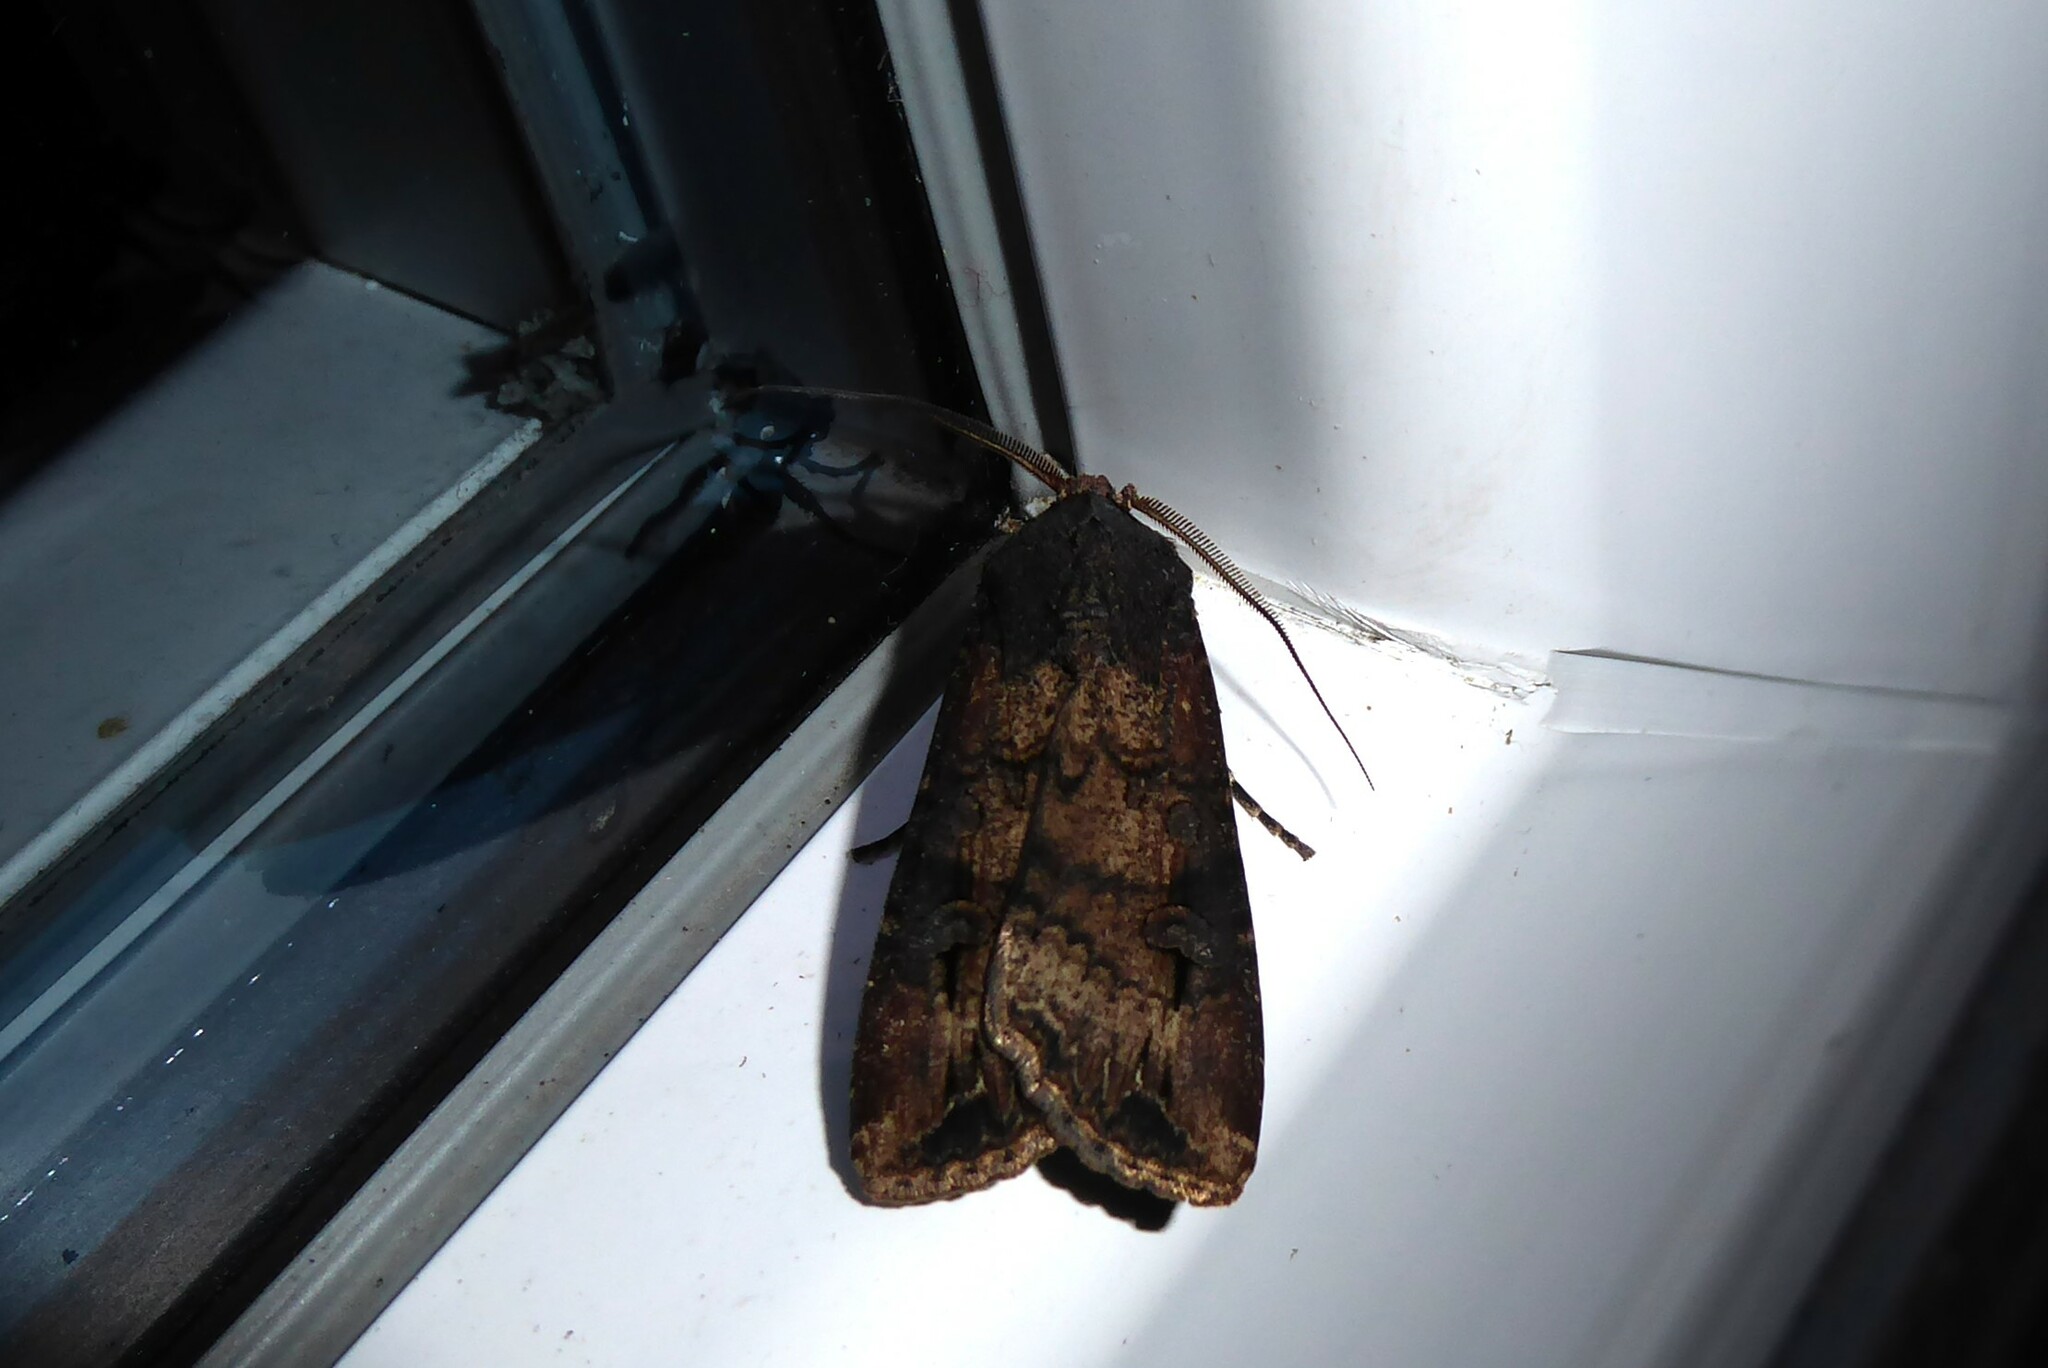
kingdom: Animalia
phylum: Arthropoda
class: Insecta
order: Lepidoptera
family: Noctuidae
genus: Agrotis
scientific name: Agrotis ipsilon
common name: Dark sword-grass
